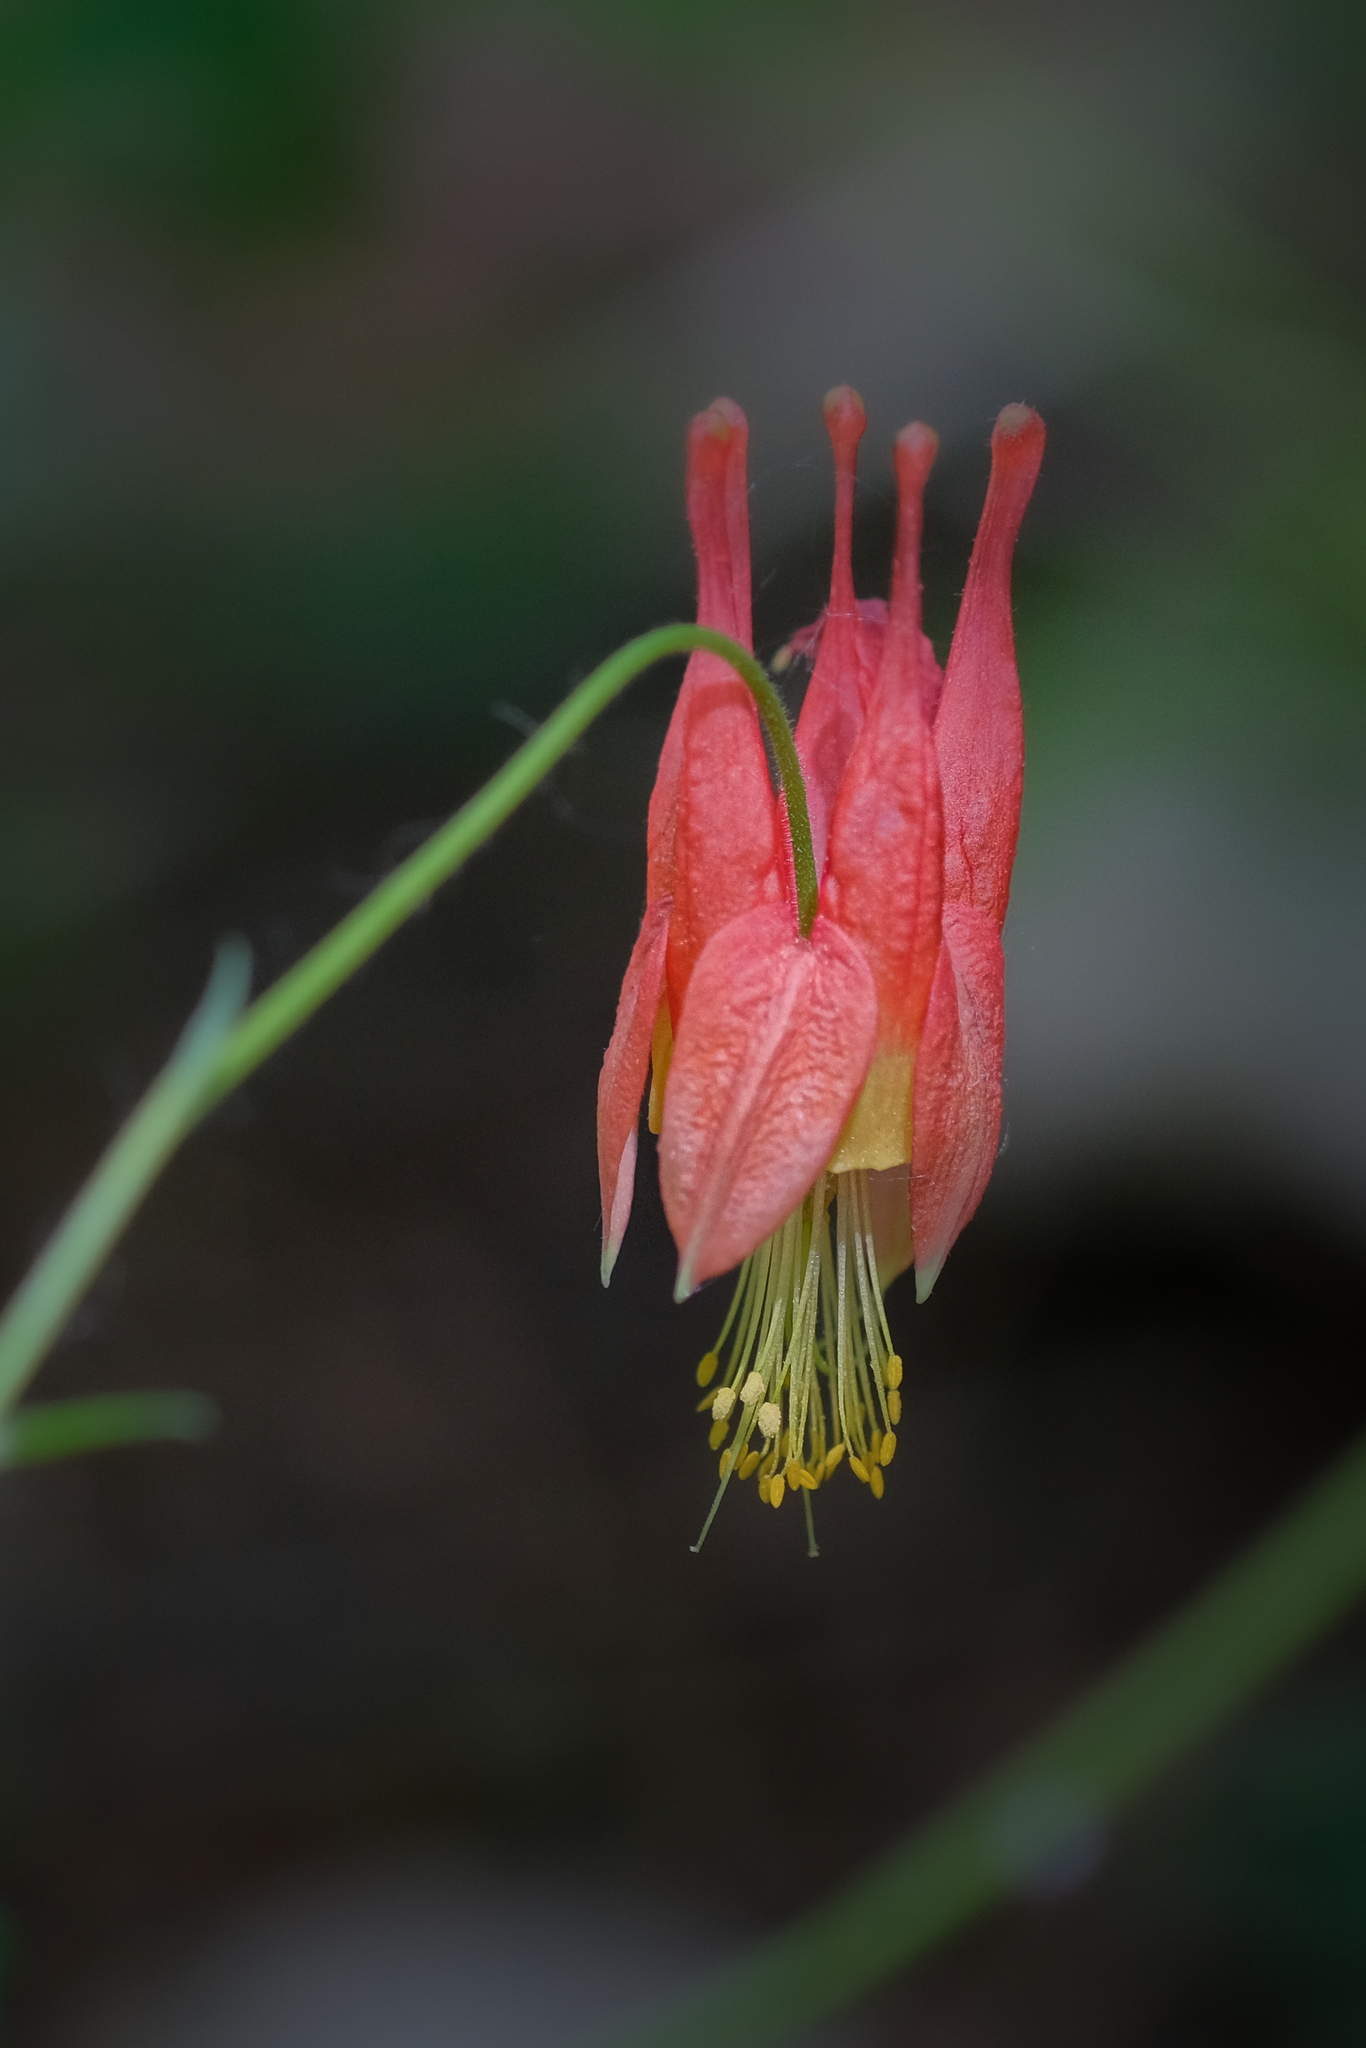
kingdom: Plantae
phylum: Tracheophyta
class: Magnoliopsida
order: Ranunculales
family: Ranunculaceae
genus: Aquilegia
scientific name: Aquilegia canadensis
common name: American columbine
